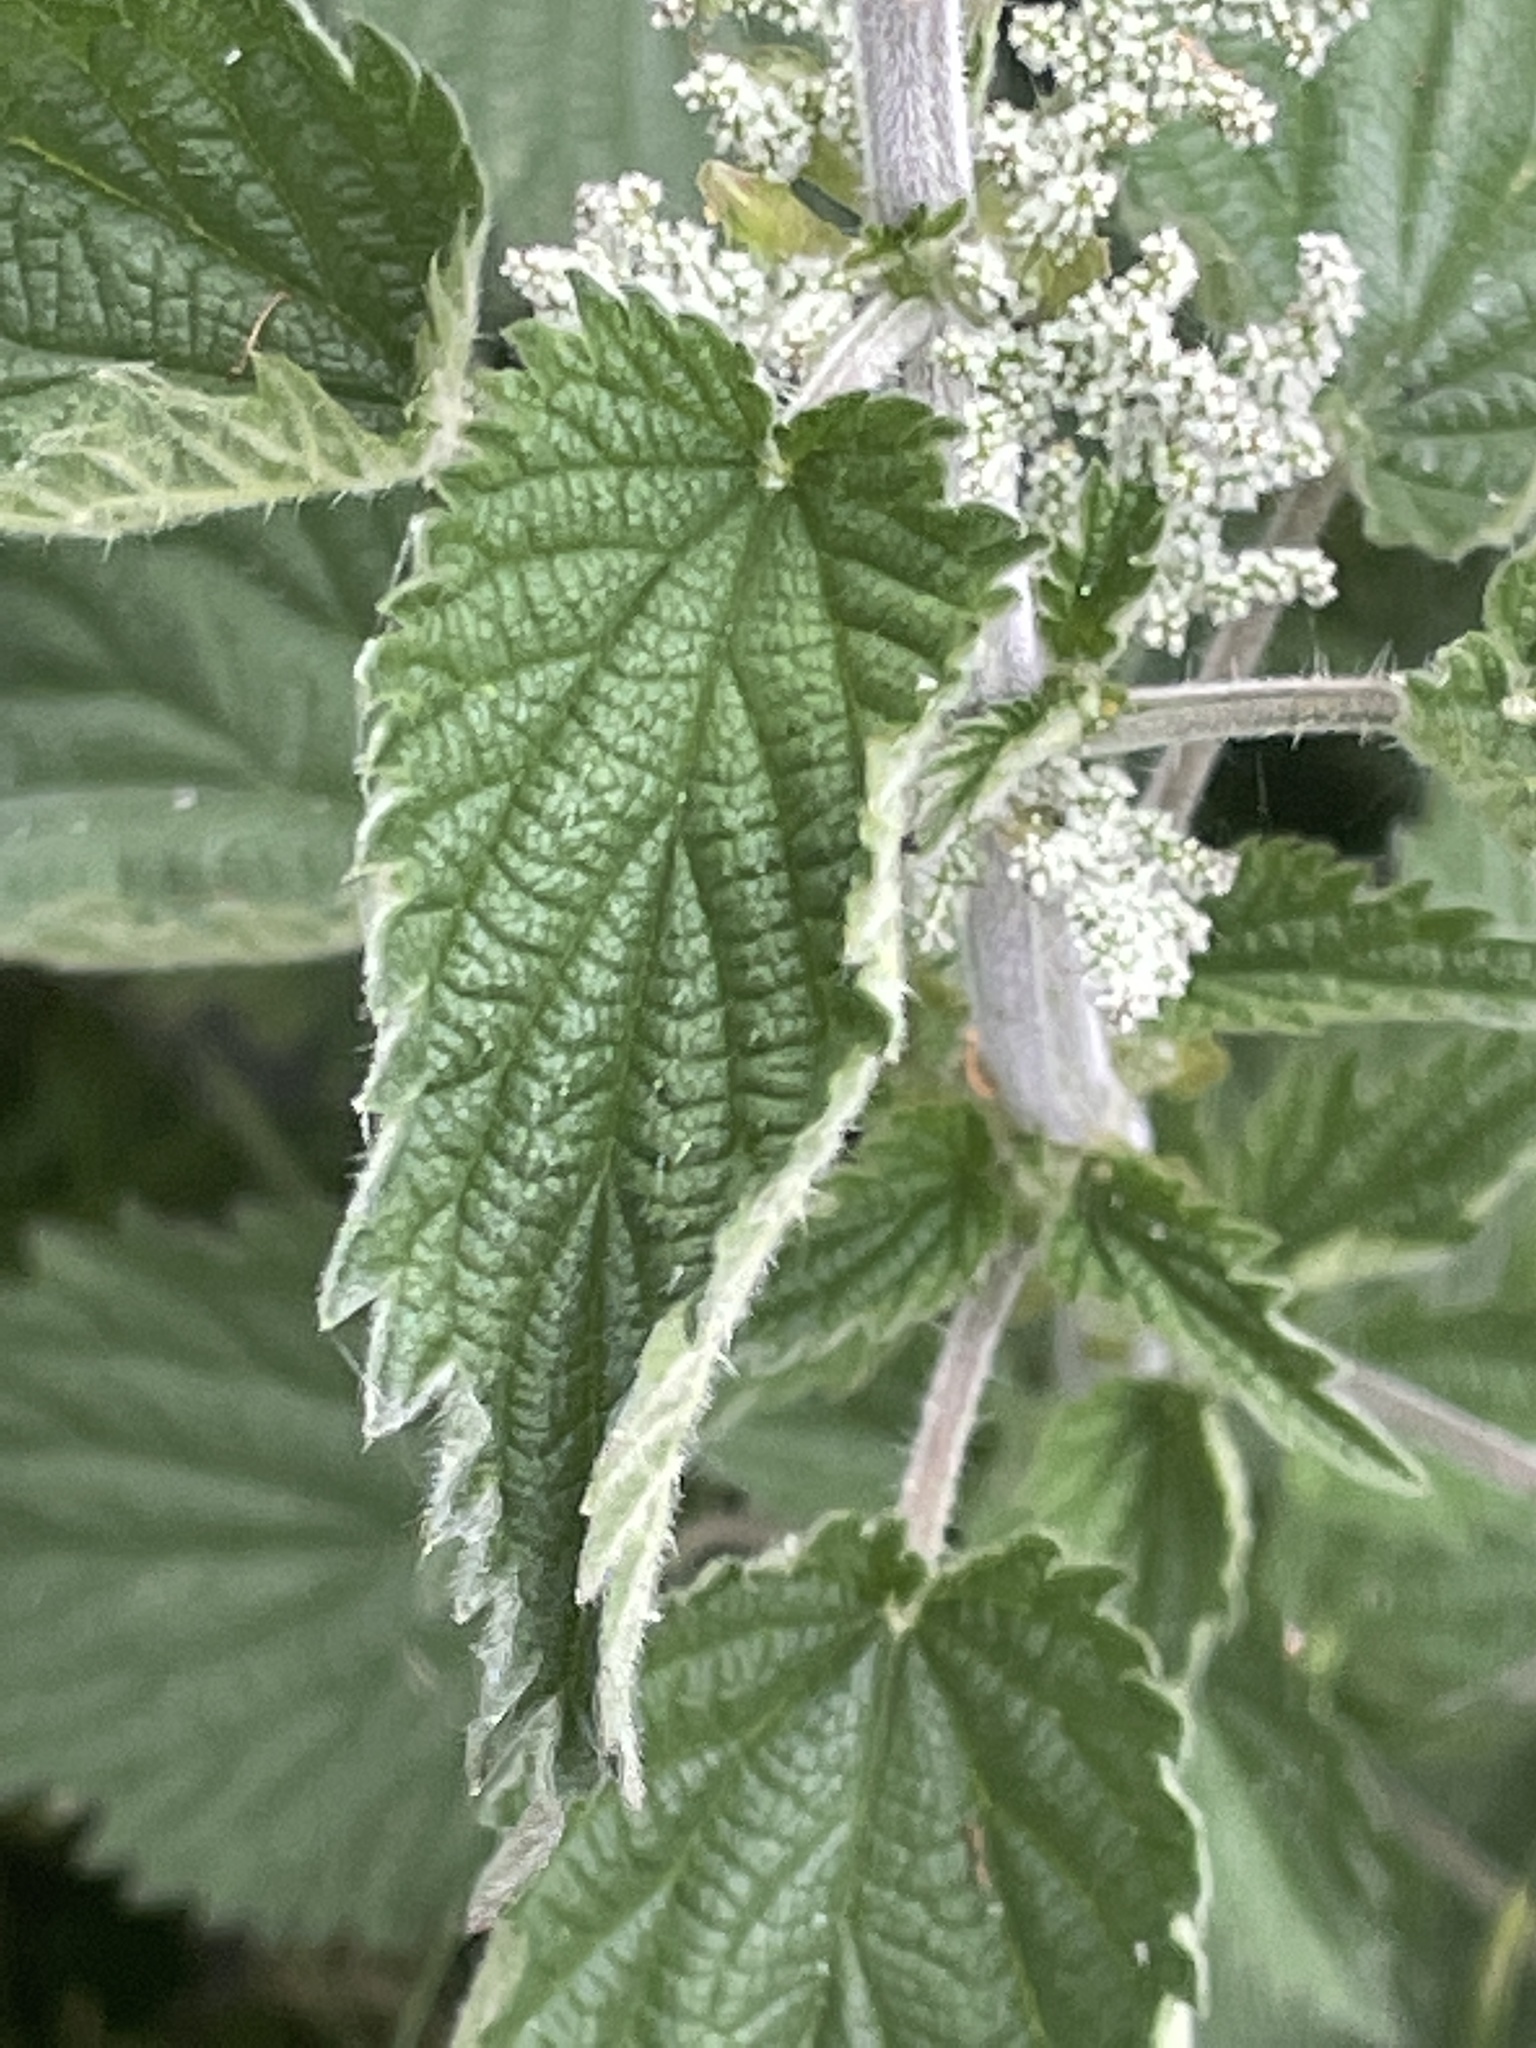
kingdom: Plantae
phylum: Tracheophyta
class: Magnoliopsida
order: Rosales
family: Urticaceae
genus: Urtica
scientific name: Urtica dioica
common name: Common nettle
